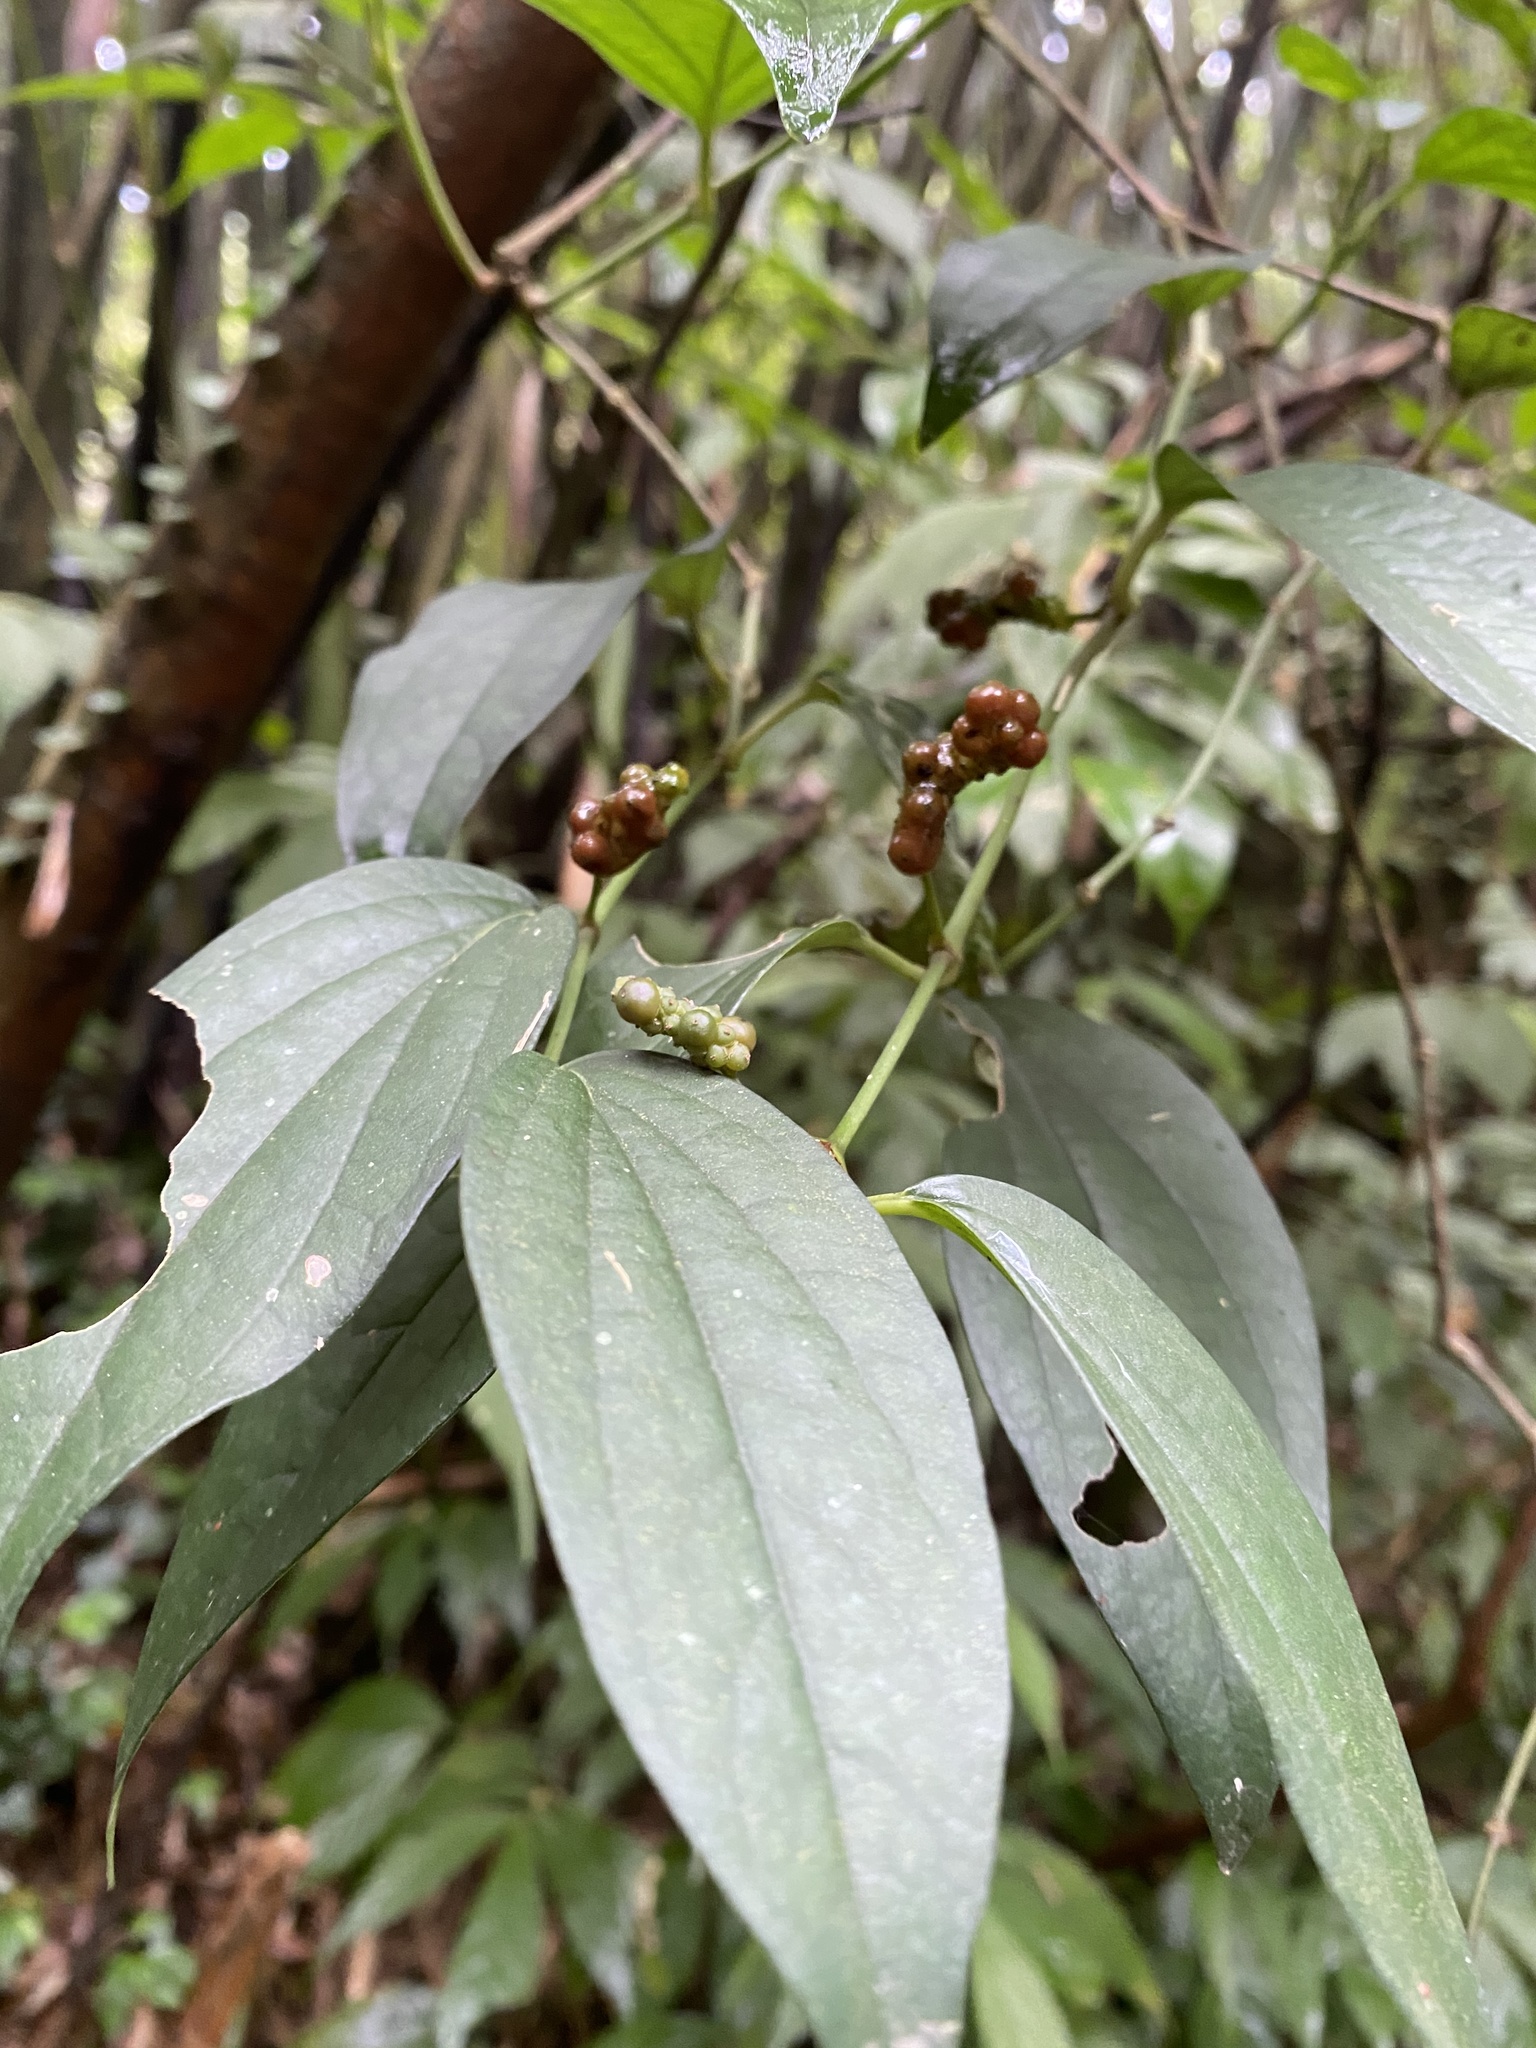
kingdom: Plantae
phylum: Tracheophyta
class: Magnoliopsida
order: Piperales
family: Piperaceae
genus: Piper
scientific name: Piper kadsura
